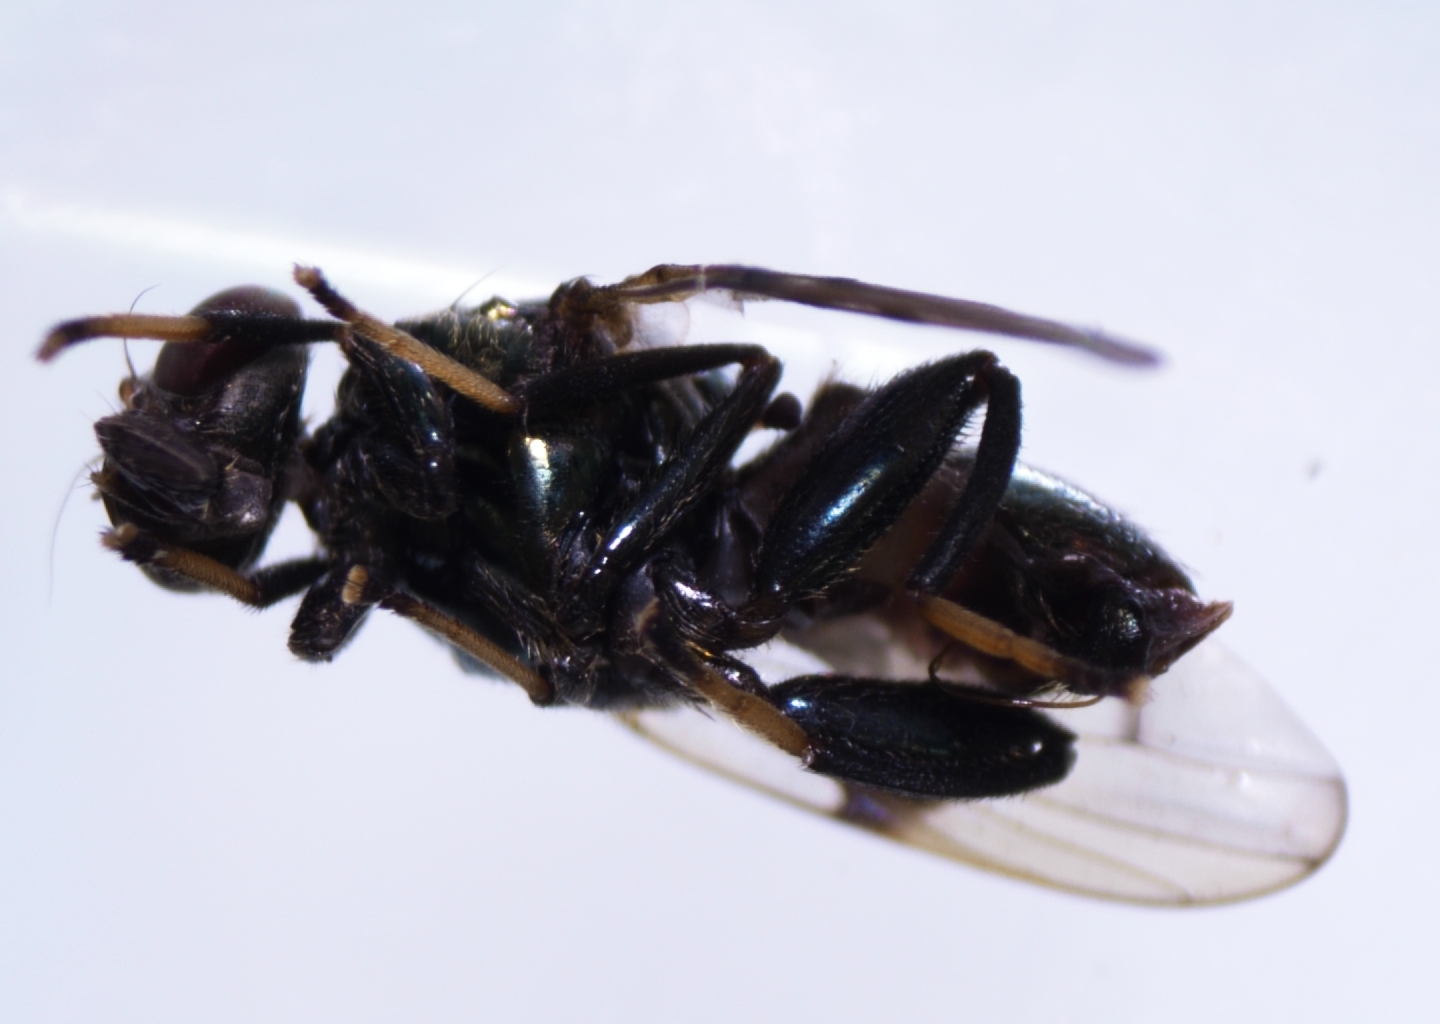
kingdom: Animalia
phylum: Arthropoda
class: Insecta
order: Diptera
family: Platystomatidae
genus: Pseudorichardia
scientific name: Pseudorichardia flavitarsis
